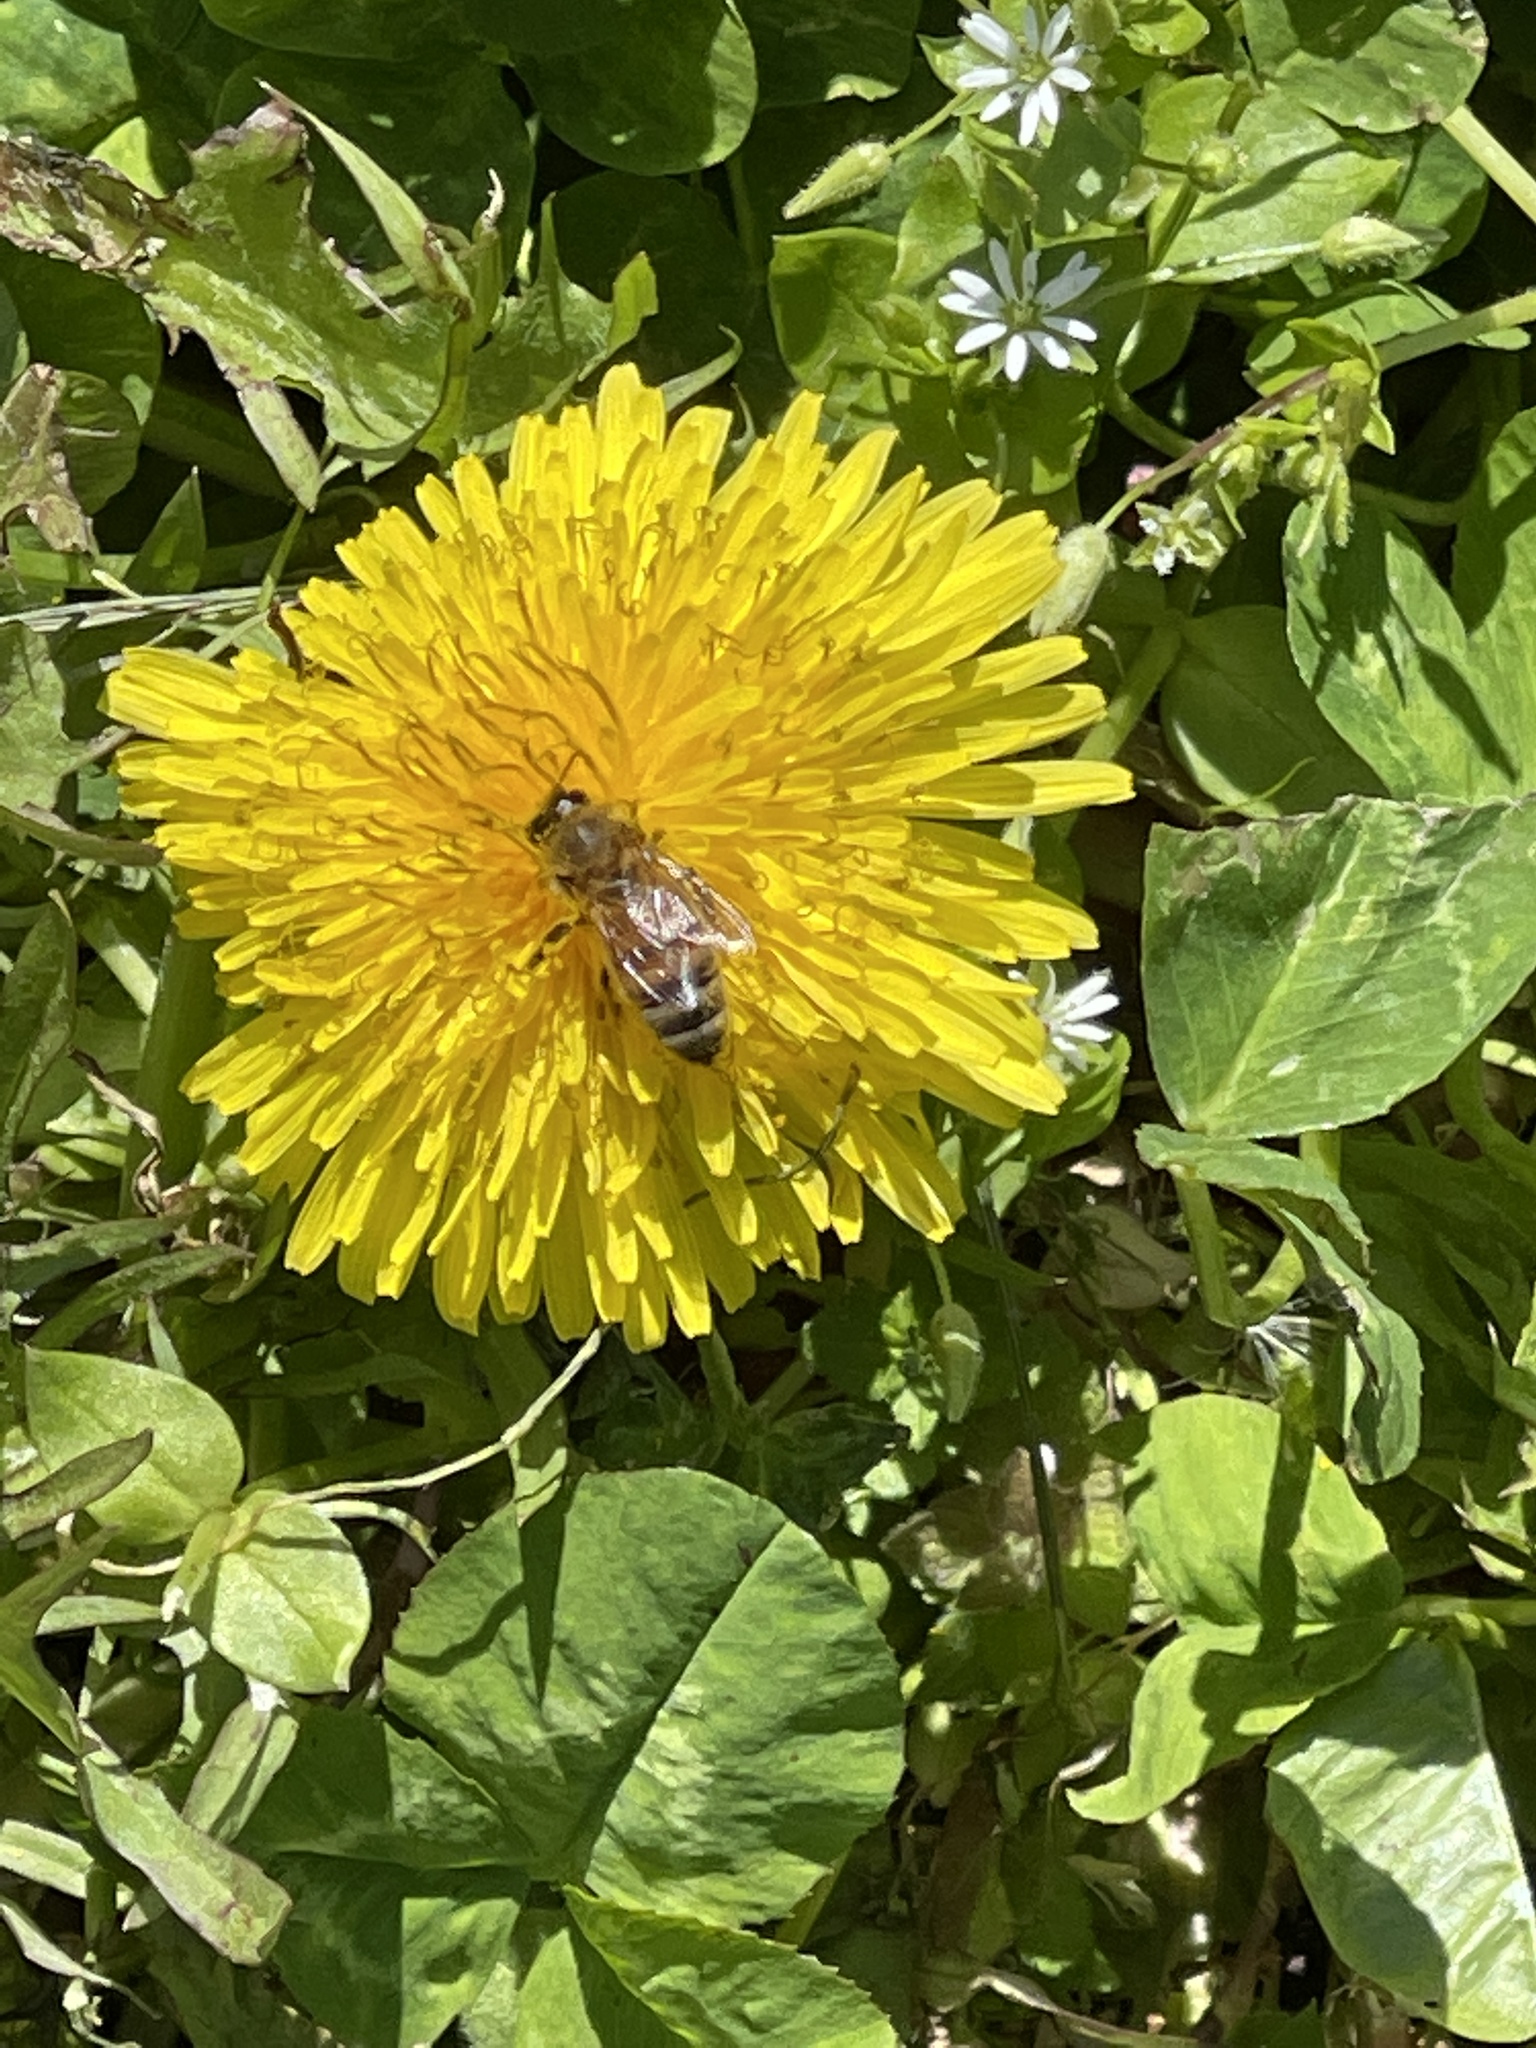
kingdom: Animalia
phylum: Arthropoda
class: Insecta
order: Hymenoptera
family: Apidae
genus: Apis
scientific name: Apis mellifera
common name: Honey bee
